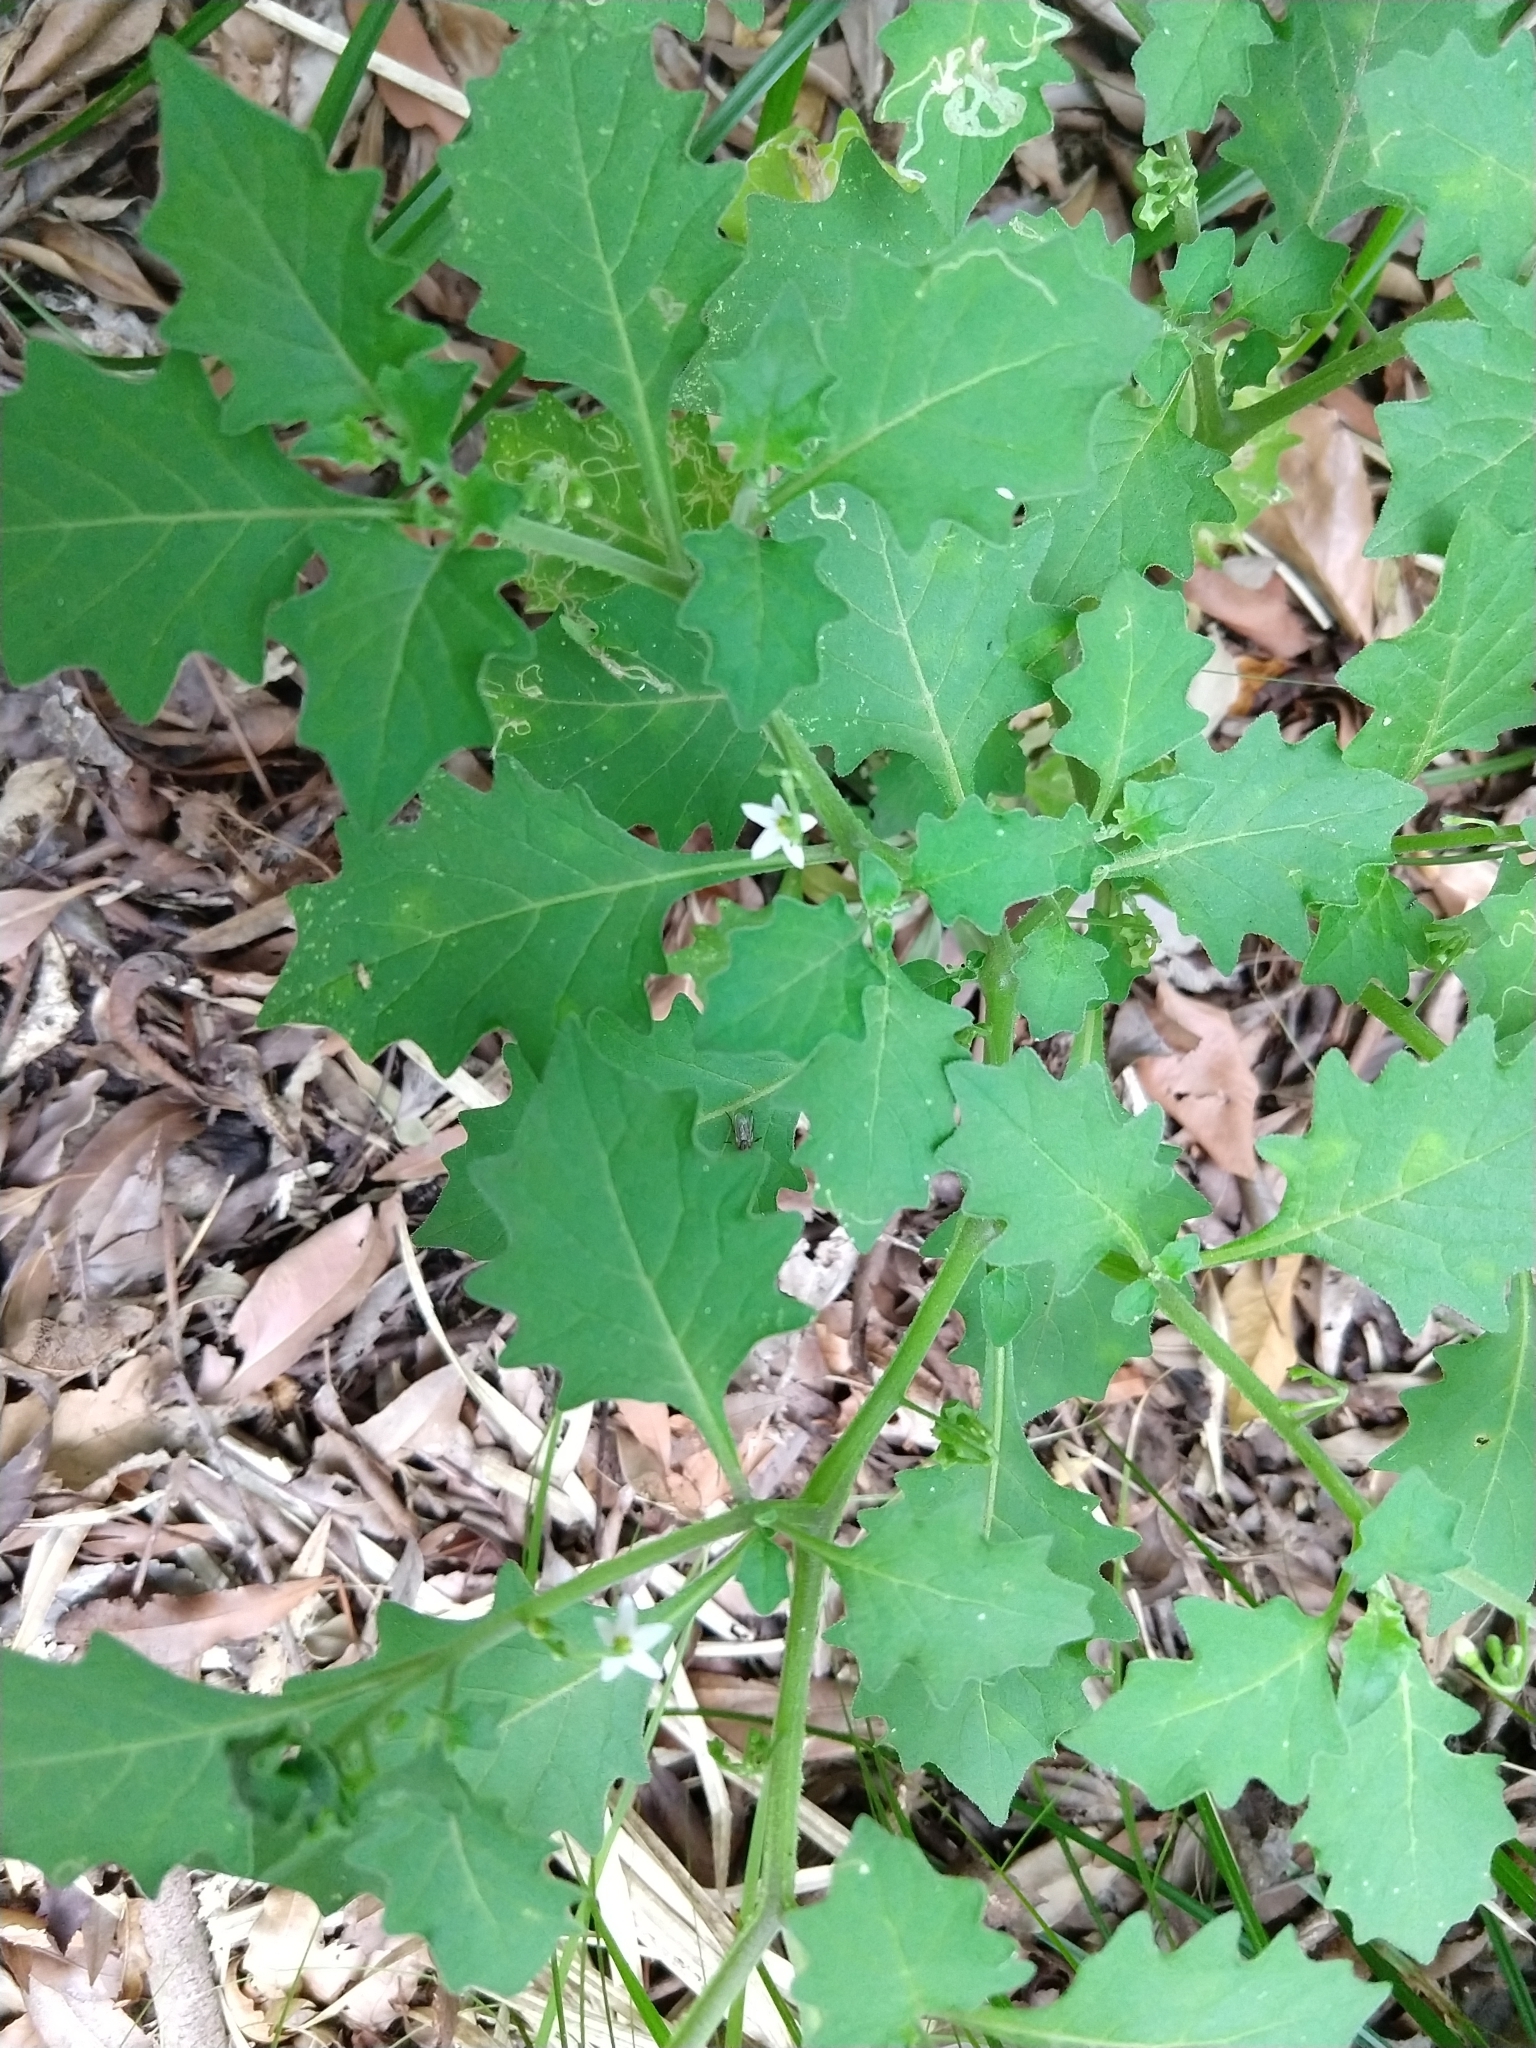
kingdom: Plantae
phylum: Tracheophyta
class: Magnoliopsida
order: Solanales
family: Solanaceae
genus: Solanum
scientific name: Solanum retroflexum
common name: Wonderberry
